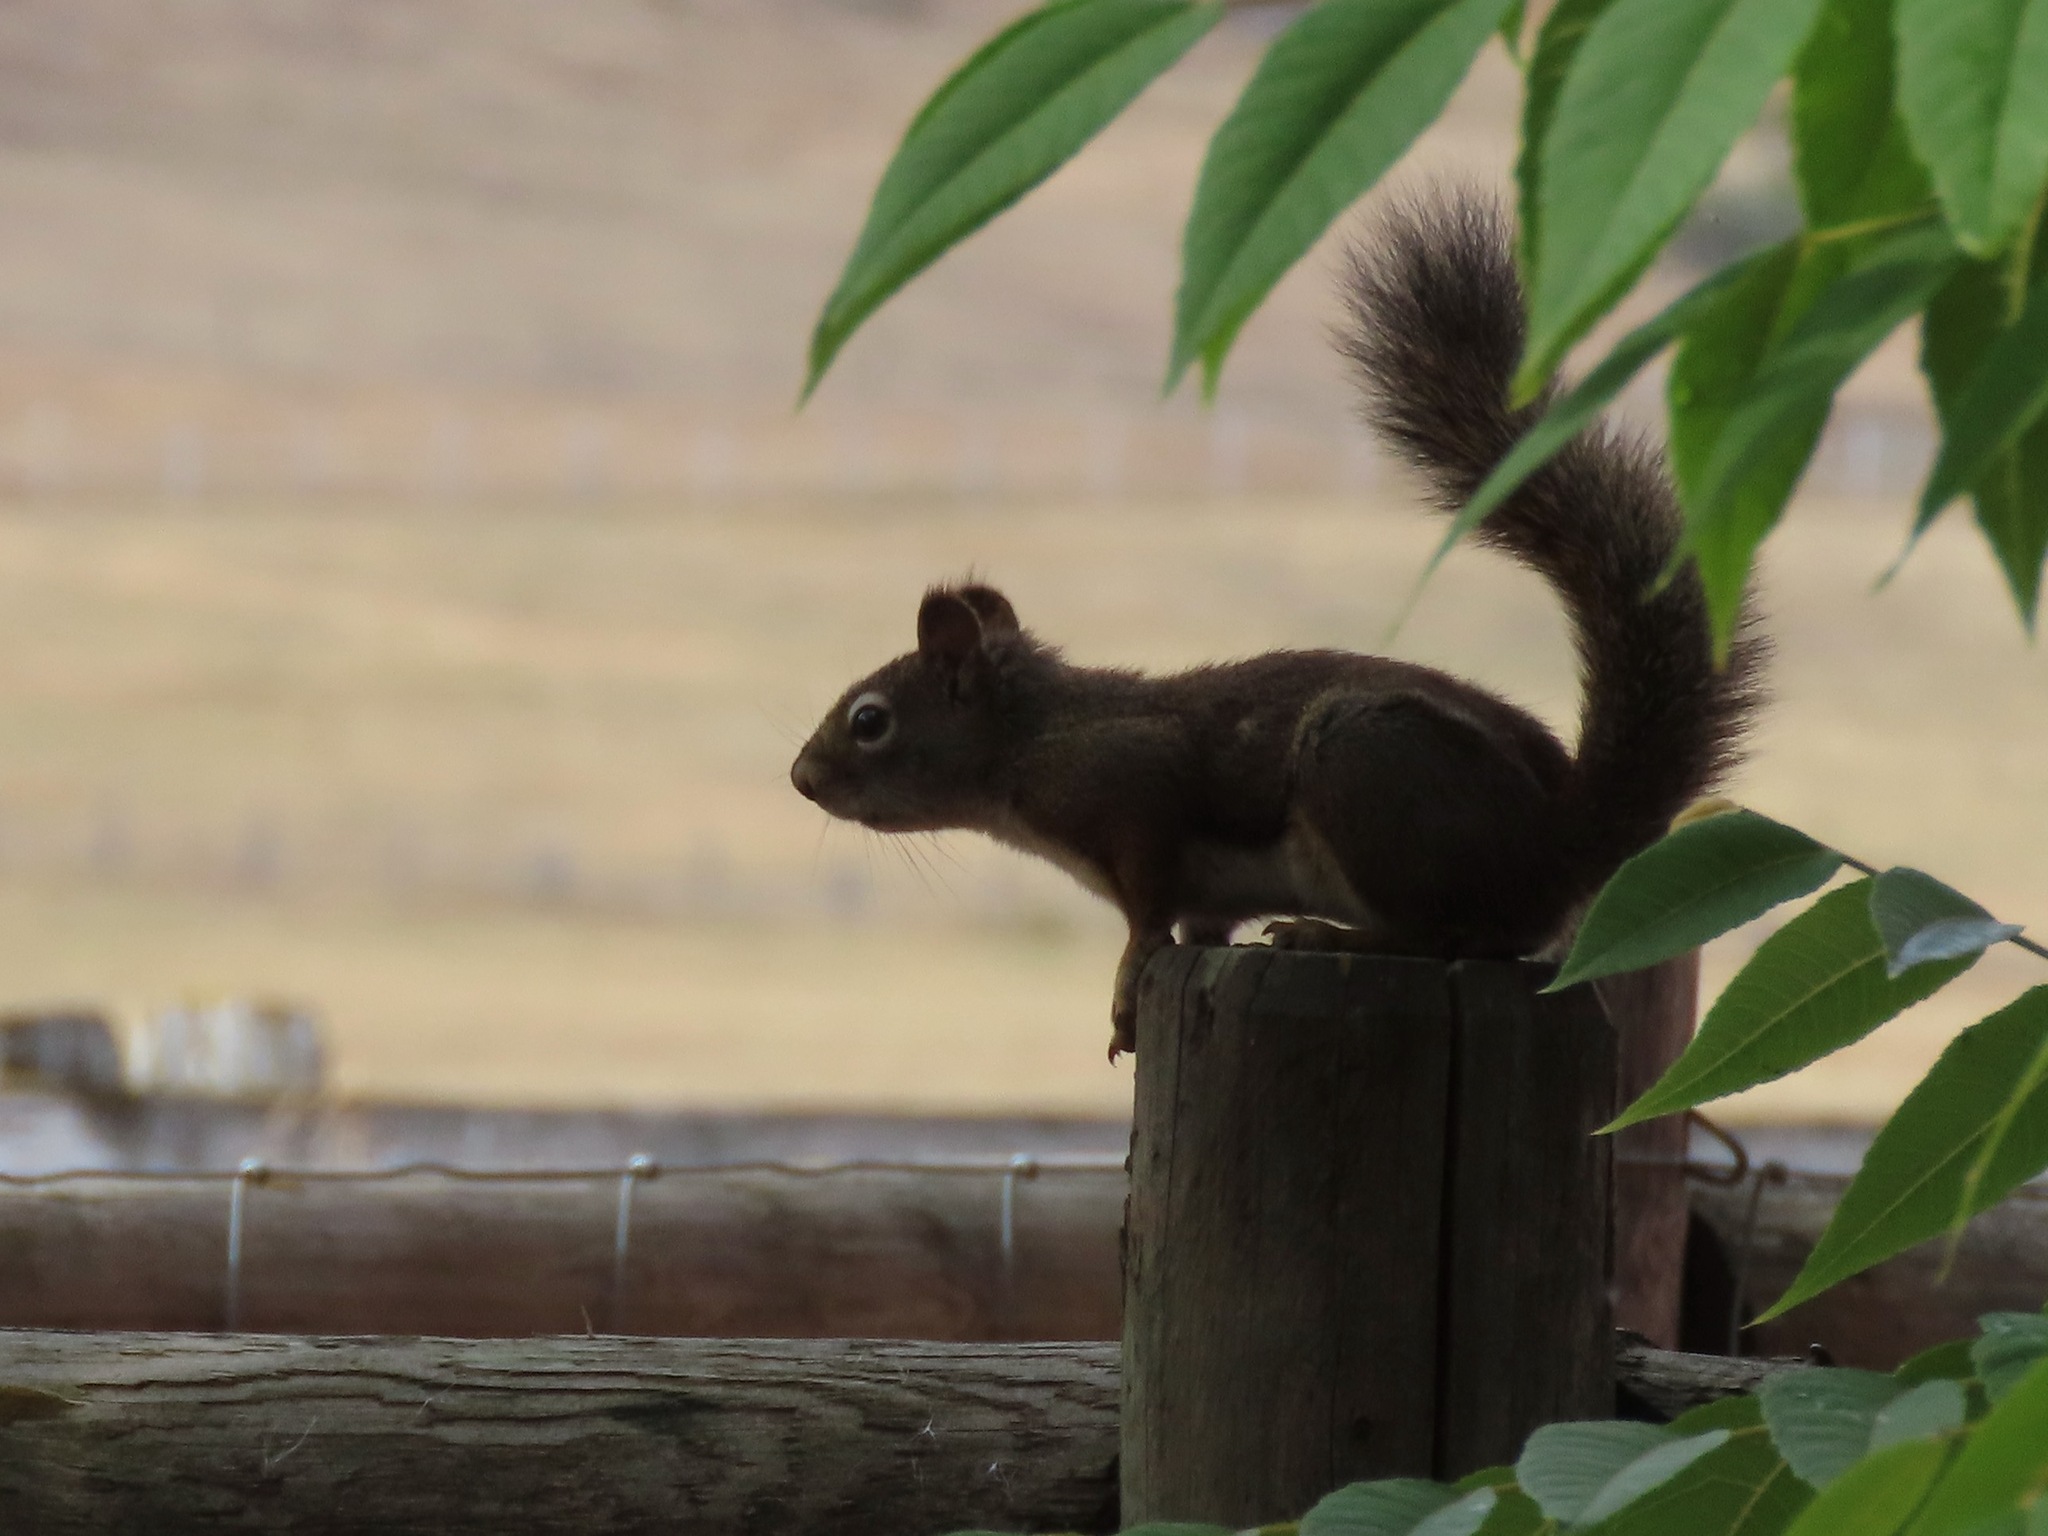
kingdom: Animalia
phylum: Chordata
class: Mammalia
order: Rodentia
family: Sciuridae
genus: Tamiasciurus
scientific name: Tamiasciurus hudsonicus
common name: Red squirrel
